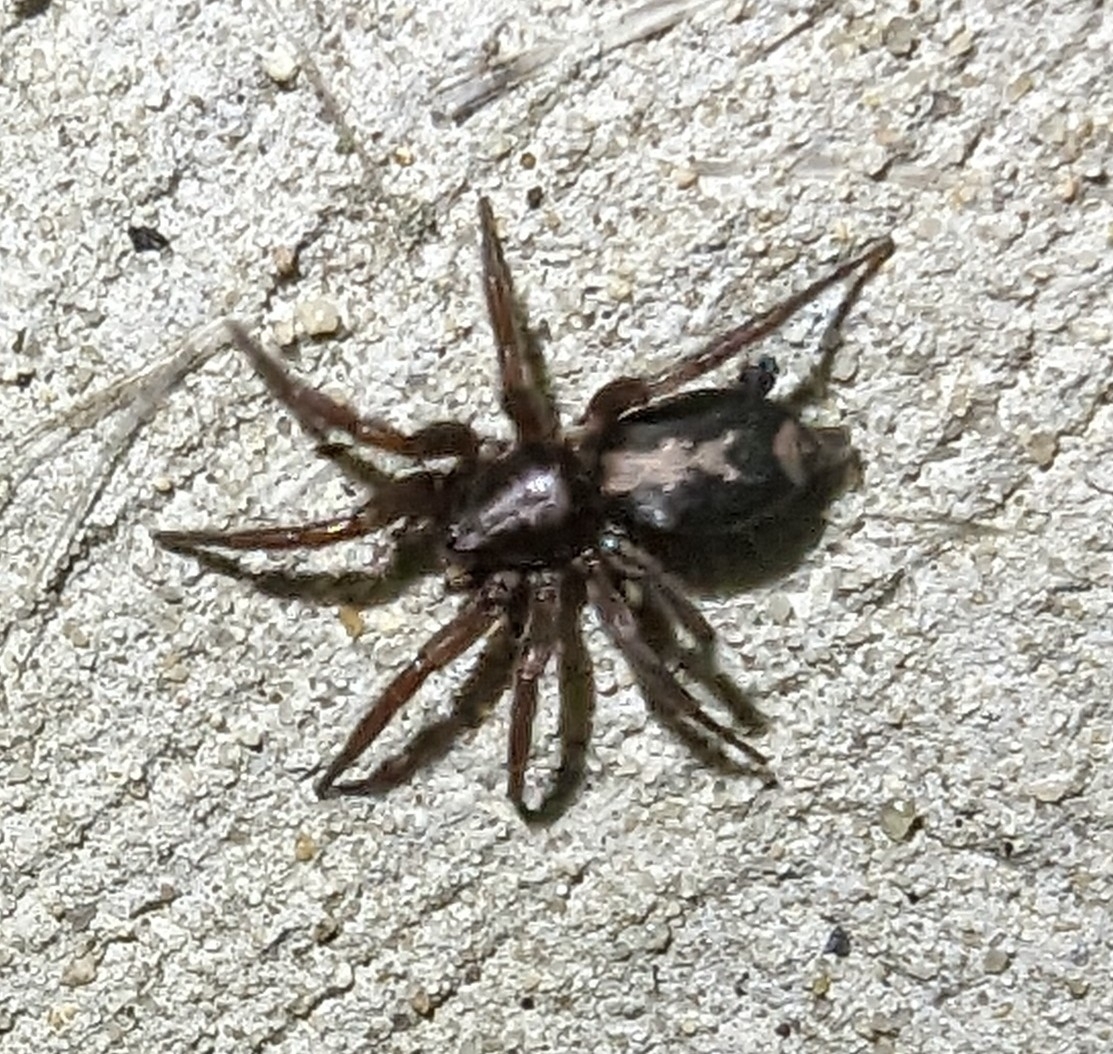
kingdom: Animalia
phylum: Arthropoda
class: Arachnida
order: Araneae
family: Gnaphosidae
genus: Herpyllus
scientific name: Herpyllus ecclesiasticus
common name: Eastern parson spider
